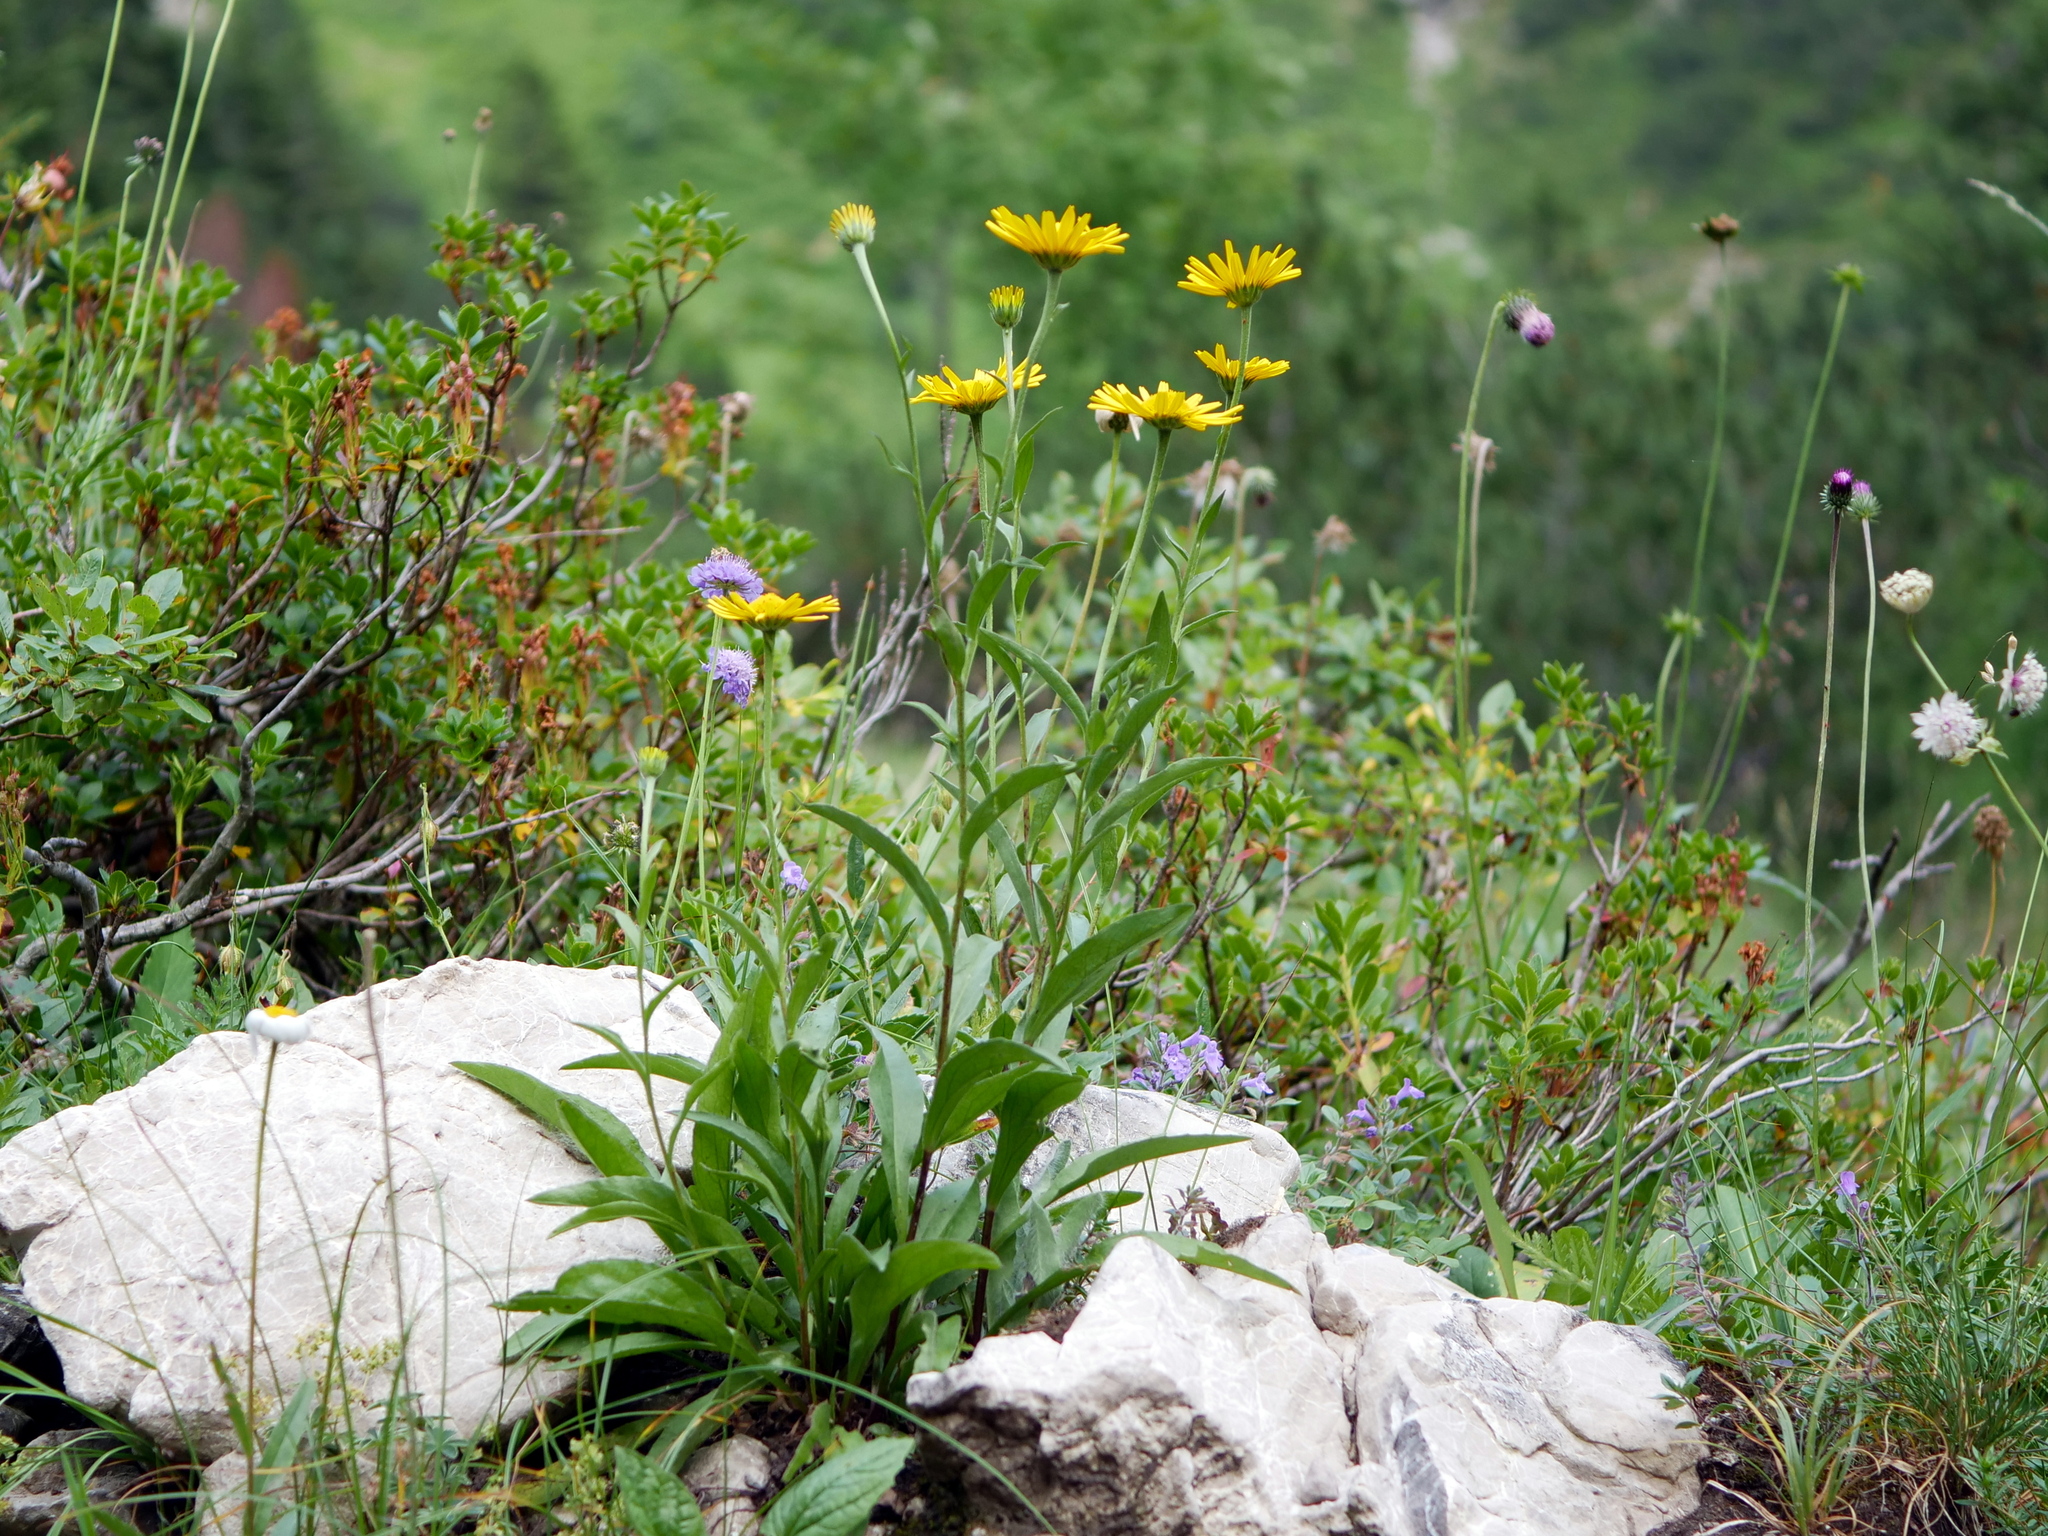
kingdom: Plantae
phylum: Tracheophyta
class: Magnoliopsida
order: Asterales
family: Asteraceae
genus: Buphthalmum
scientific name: Buphthalmum salicifolium
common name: Willow-leaved yellow-oxeye
